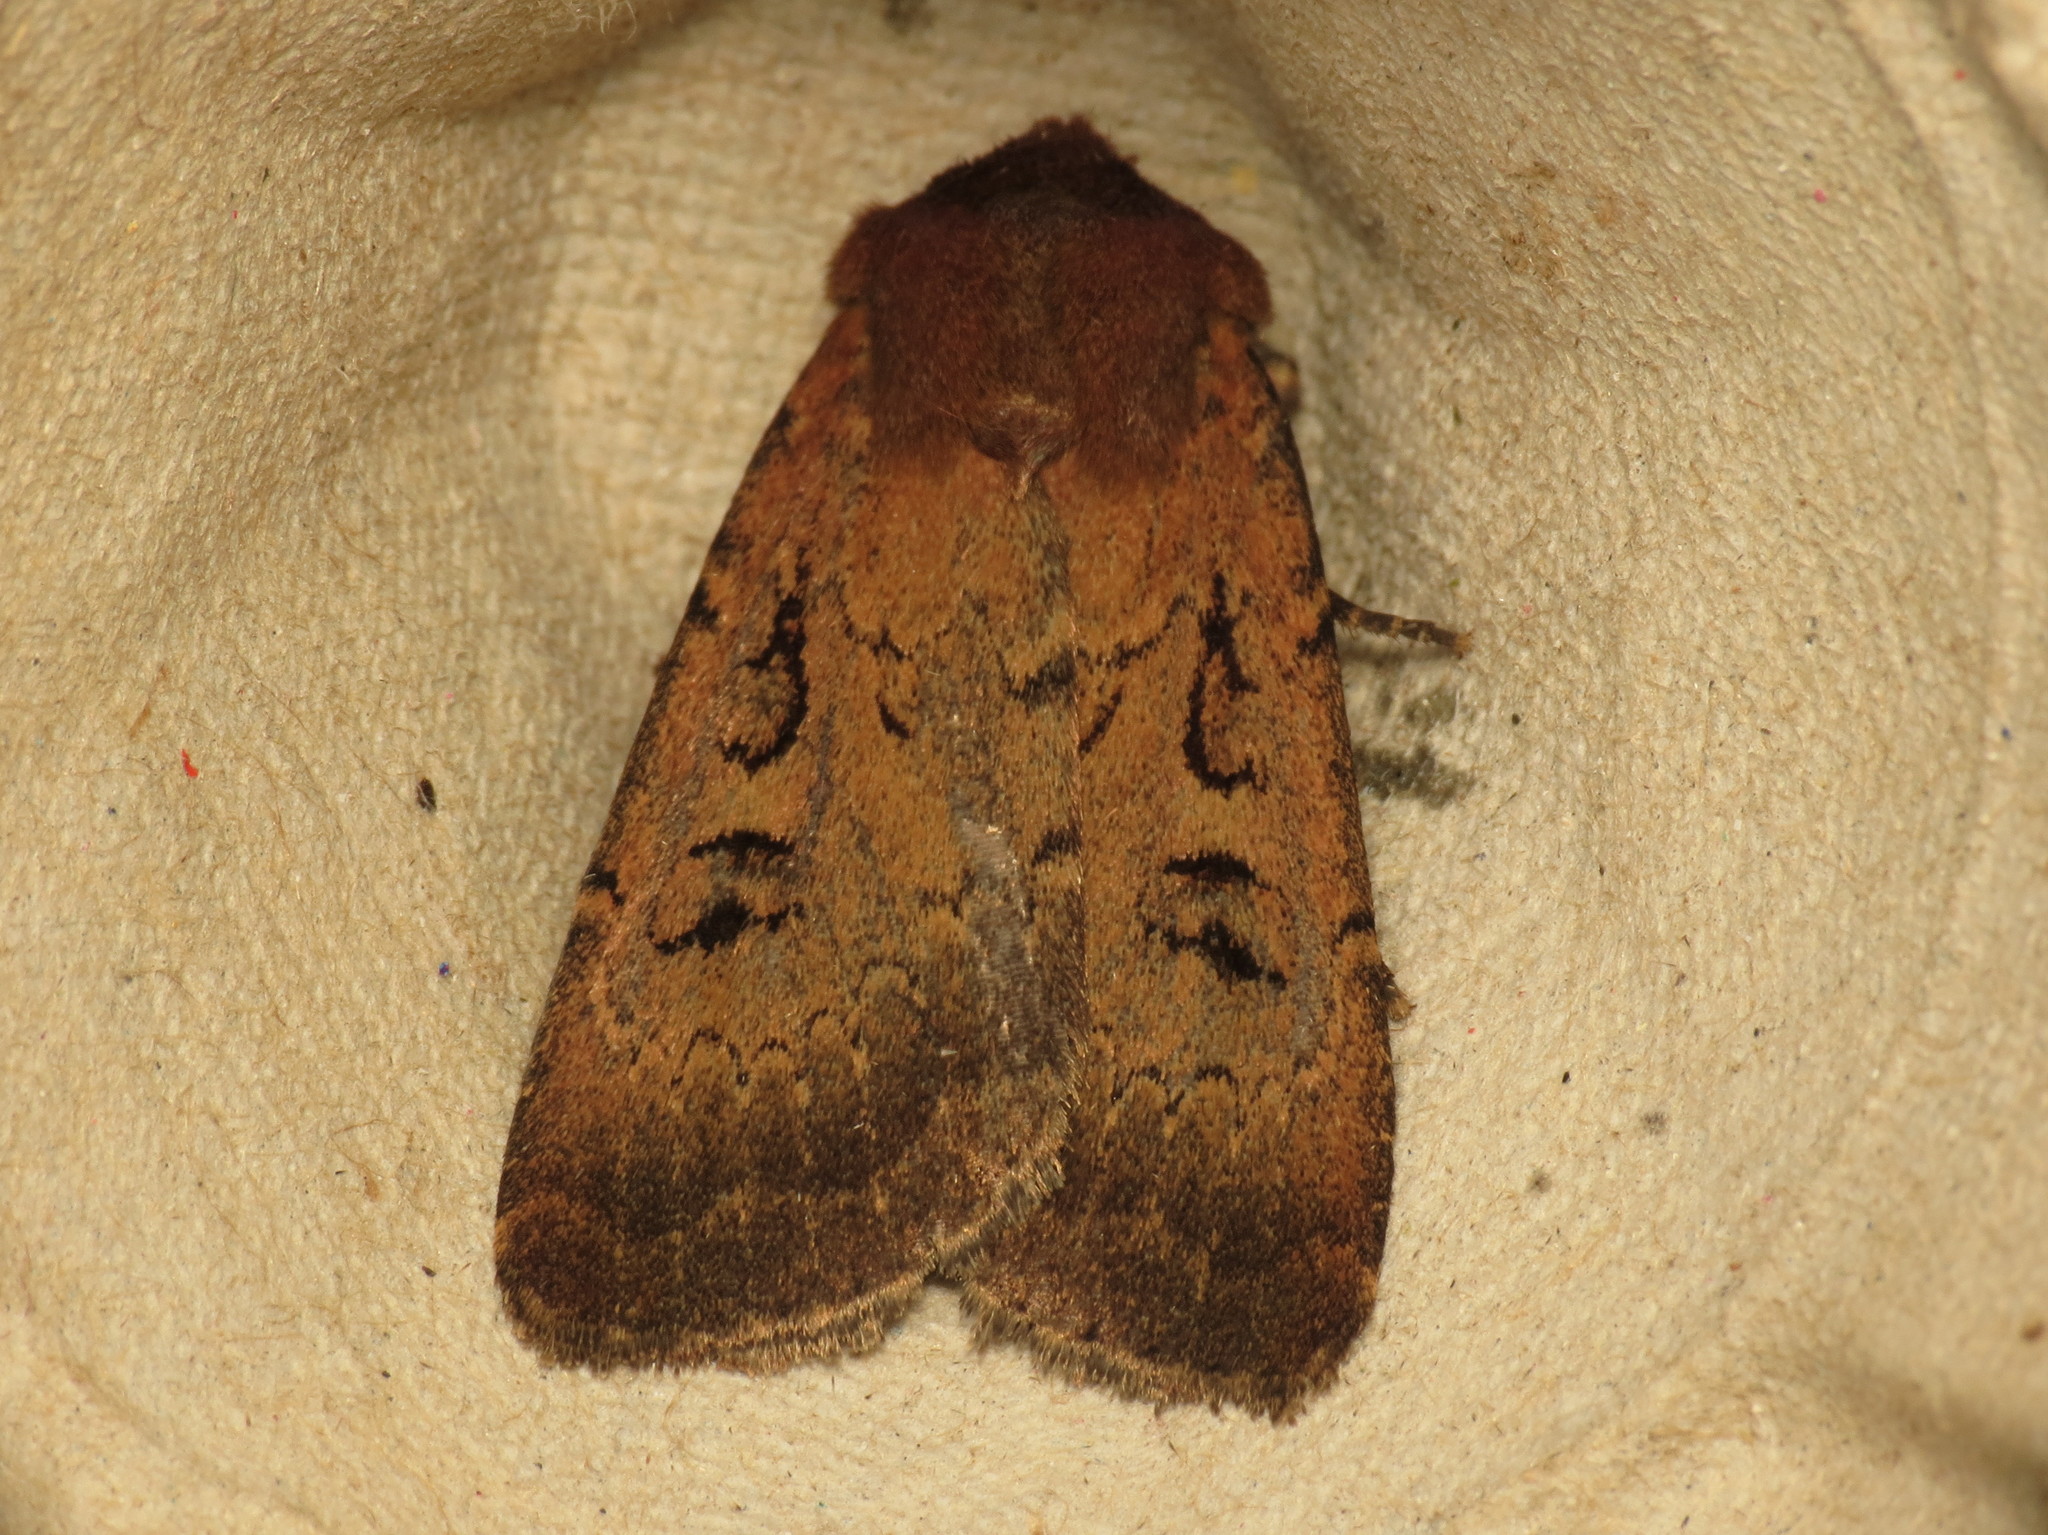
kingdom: Animalia
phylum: Arthropoda
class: Insecta
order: Lepidoptera
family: Noctuidae
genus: Graphiphora
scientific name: Graphiphora augur
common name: Double dart
